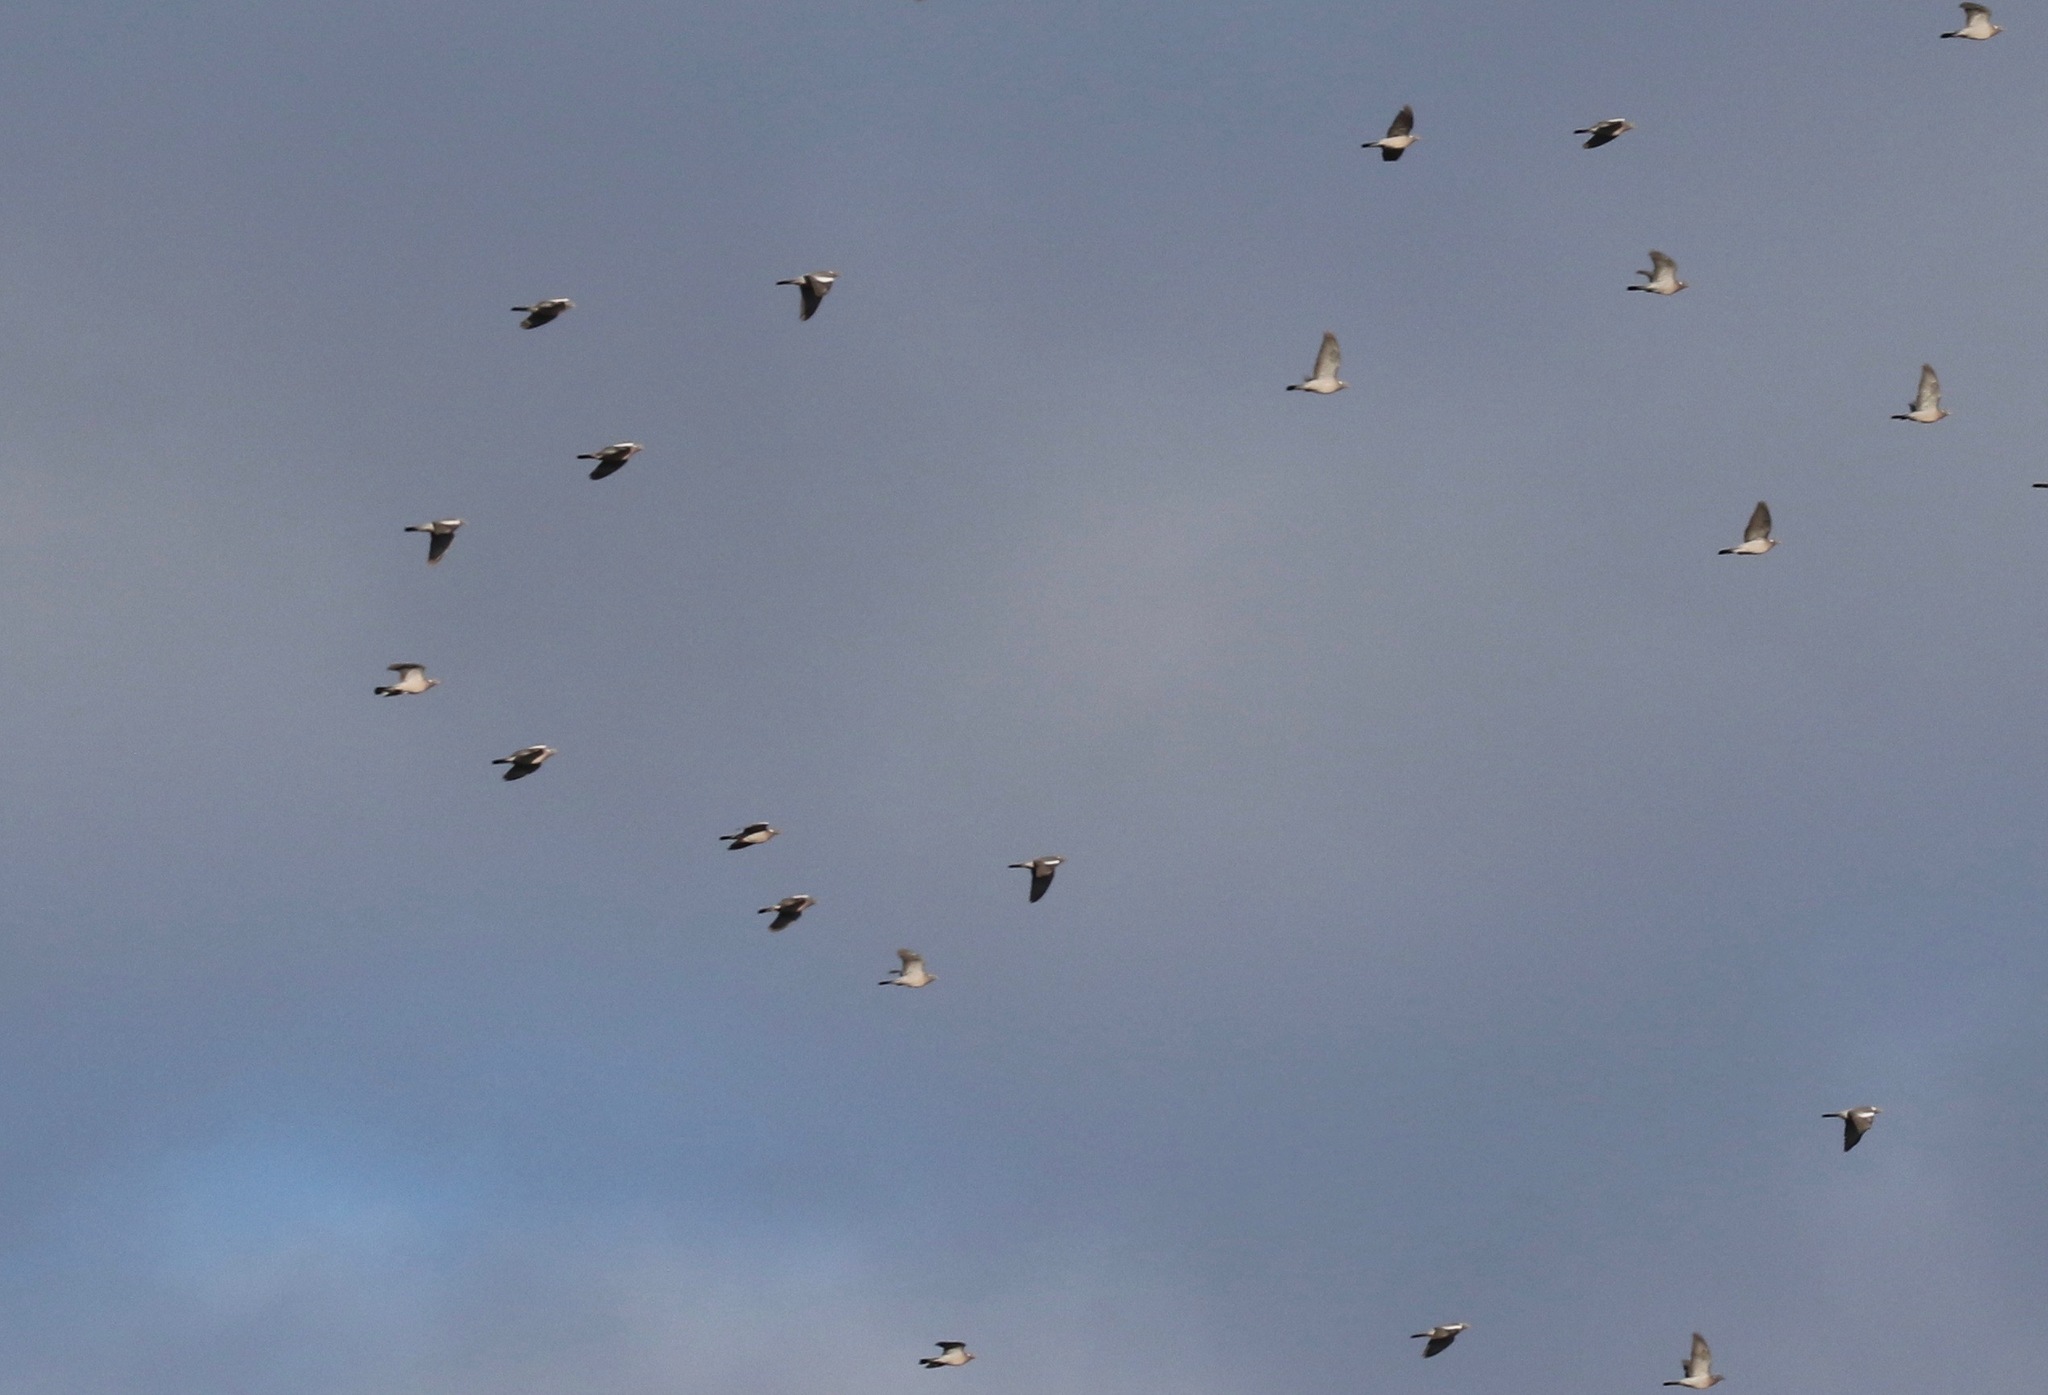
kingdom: Animalia
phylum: Chordata
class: Aves
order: Columbiformes
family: Columbidae
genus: Columba
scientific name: Columba palumbus
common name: Common wood pigeon
